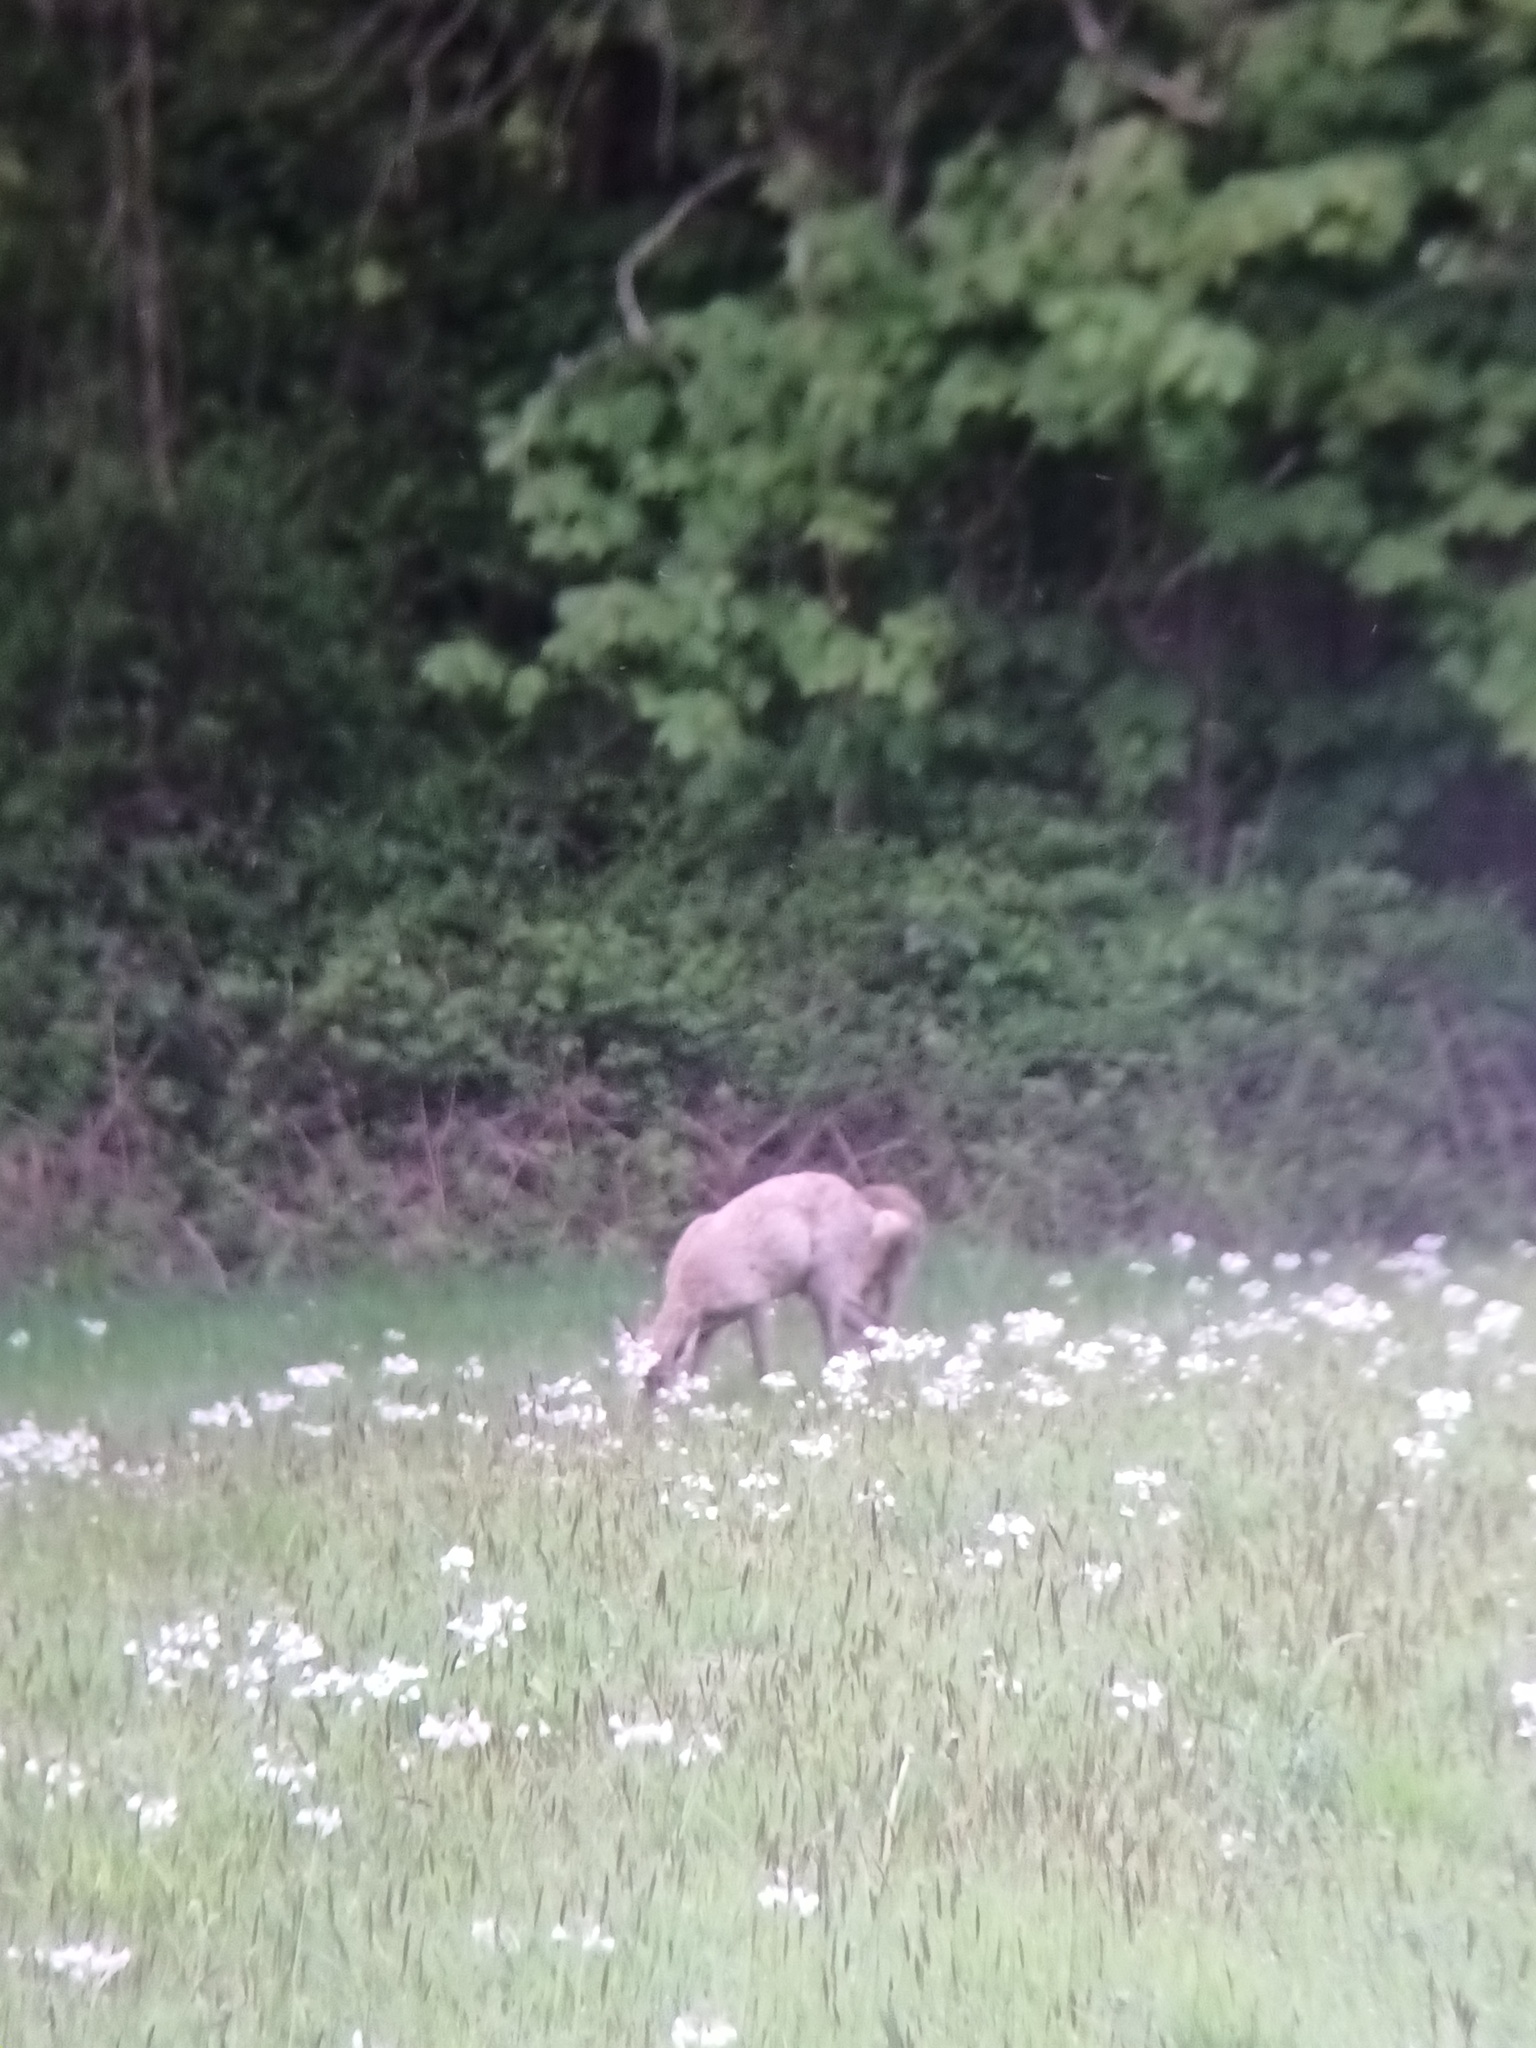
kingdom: Animalia
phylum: Chordata
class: Mammalia
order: Artiodactyla
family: Cervidae
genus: Capreolus
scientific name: Capreolus capreolus
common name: Western roe deer
